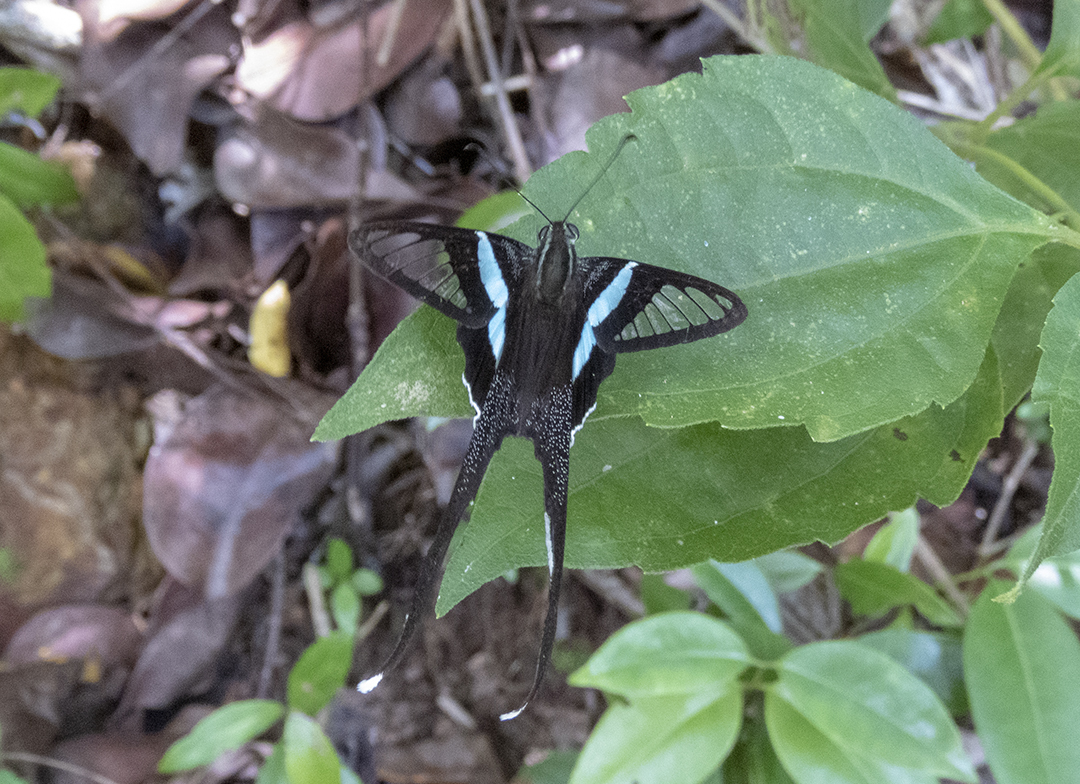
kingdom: Animalia
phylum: Arthropoda
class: Insecta
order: Lepidoptera
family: Papilionidae
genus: Lamproptera
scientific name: Lamproptera meges
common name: Green dragontail
